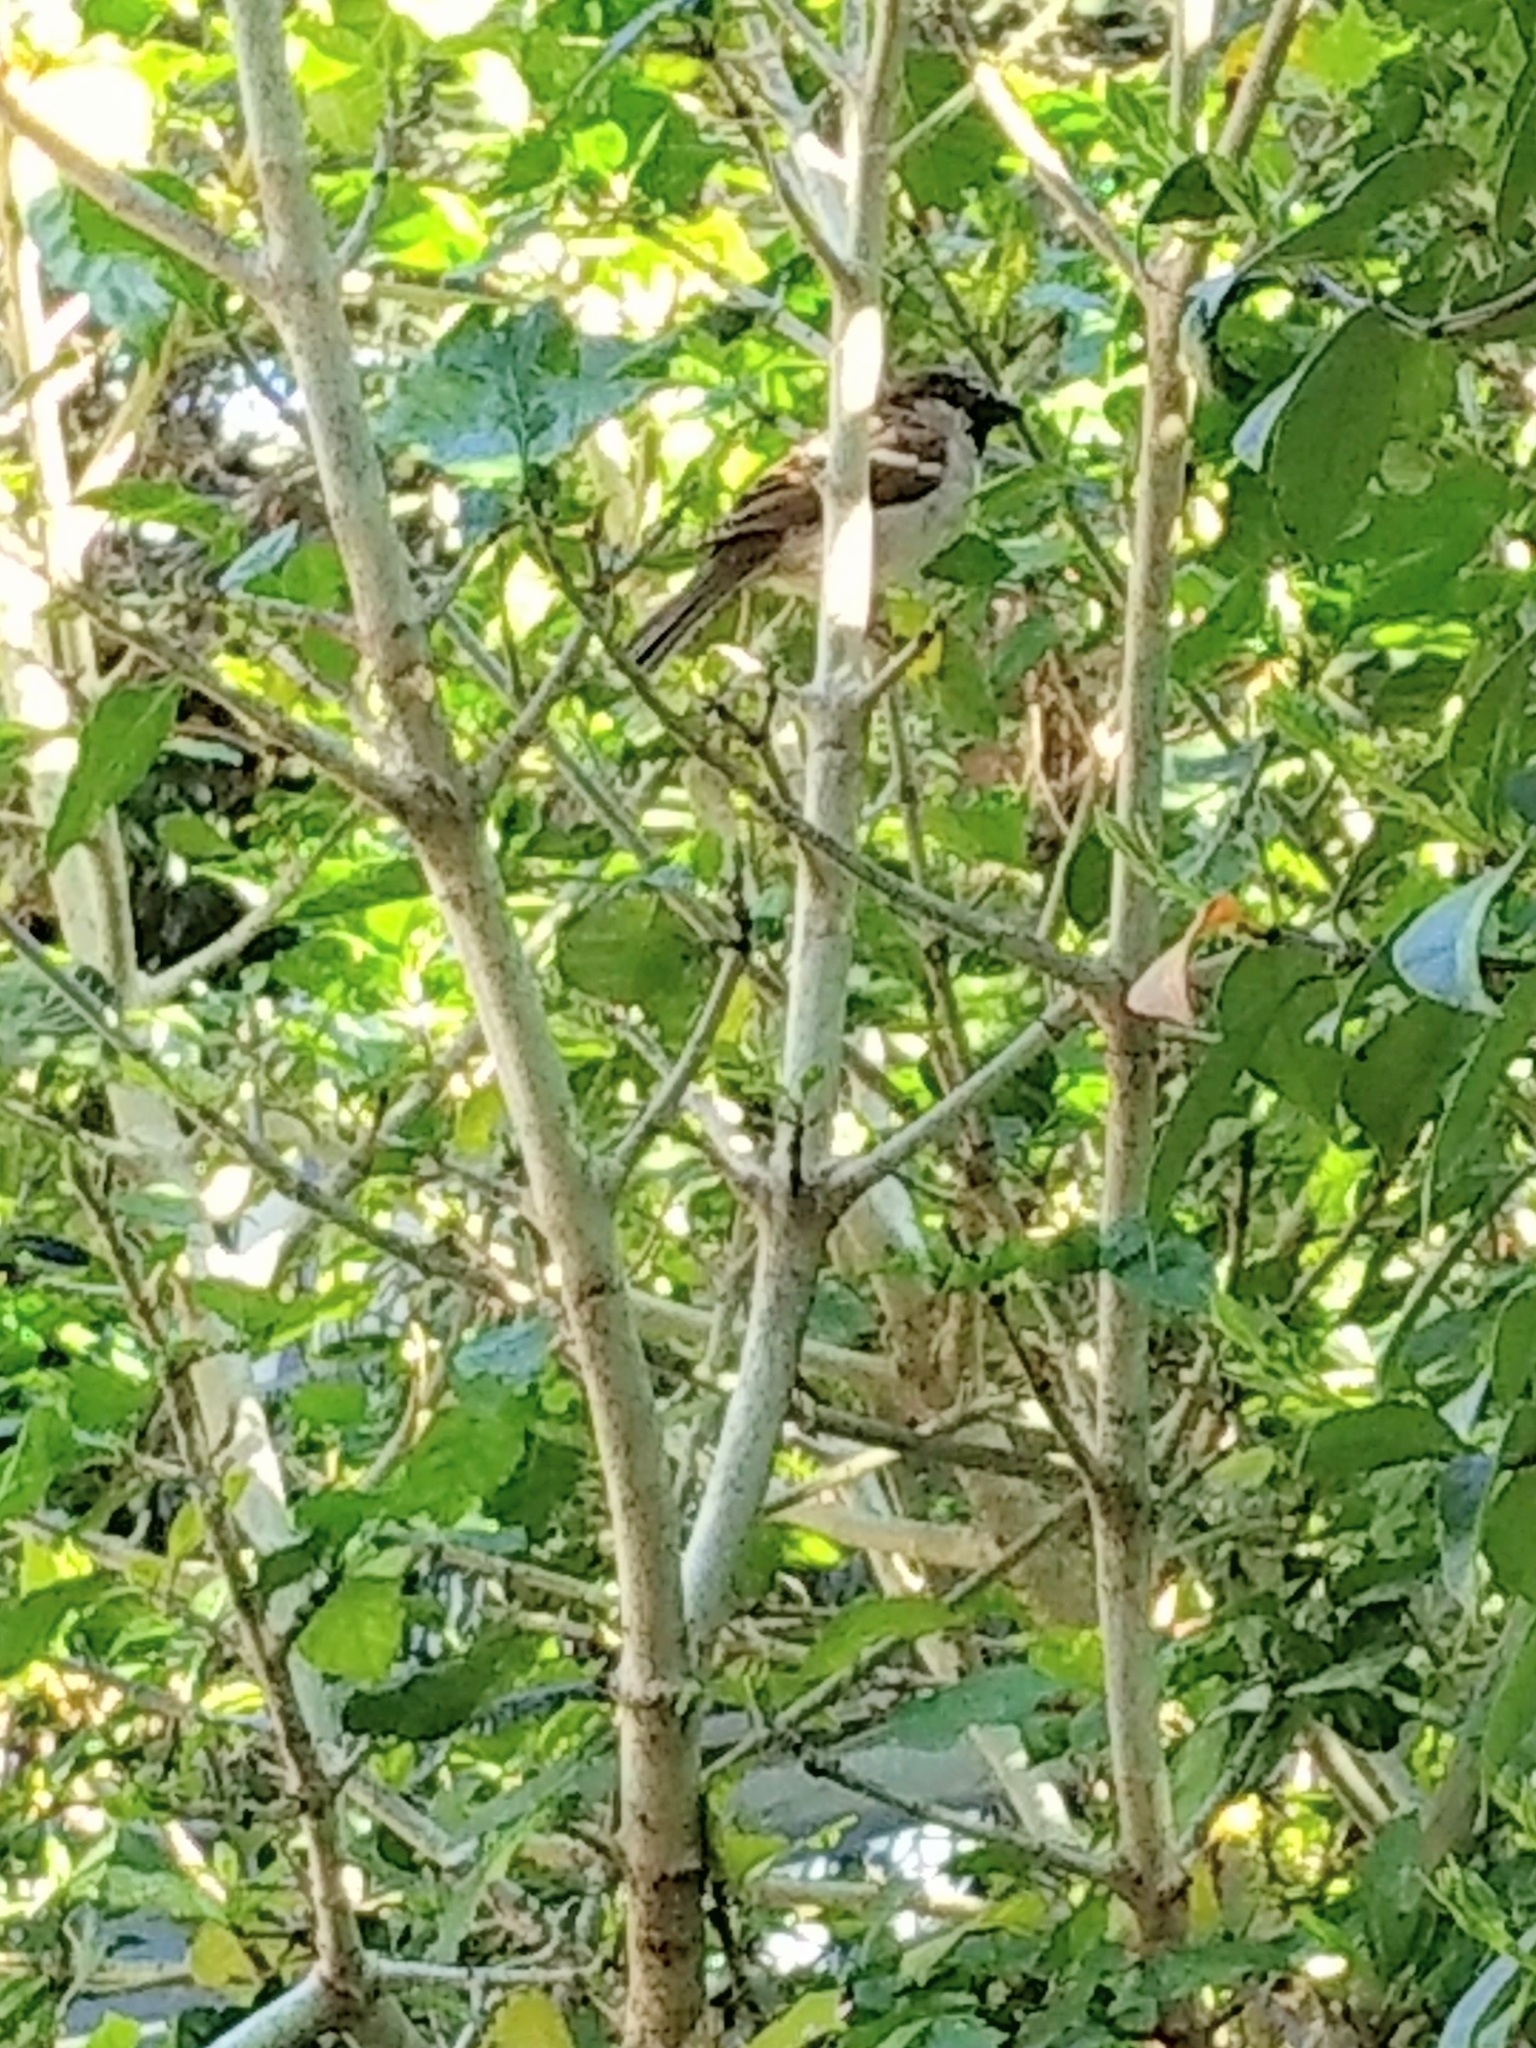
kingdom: Animalia
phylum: Chordata
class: Aves
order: Passeriformes
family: Passeridae
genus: Passer
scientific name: Passer domesticus
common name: House sparrow
